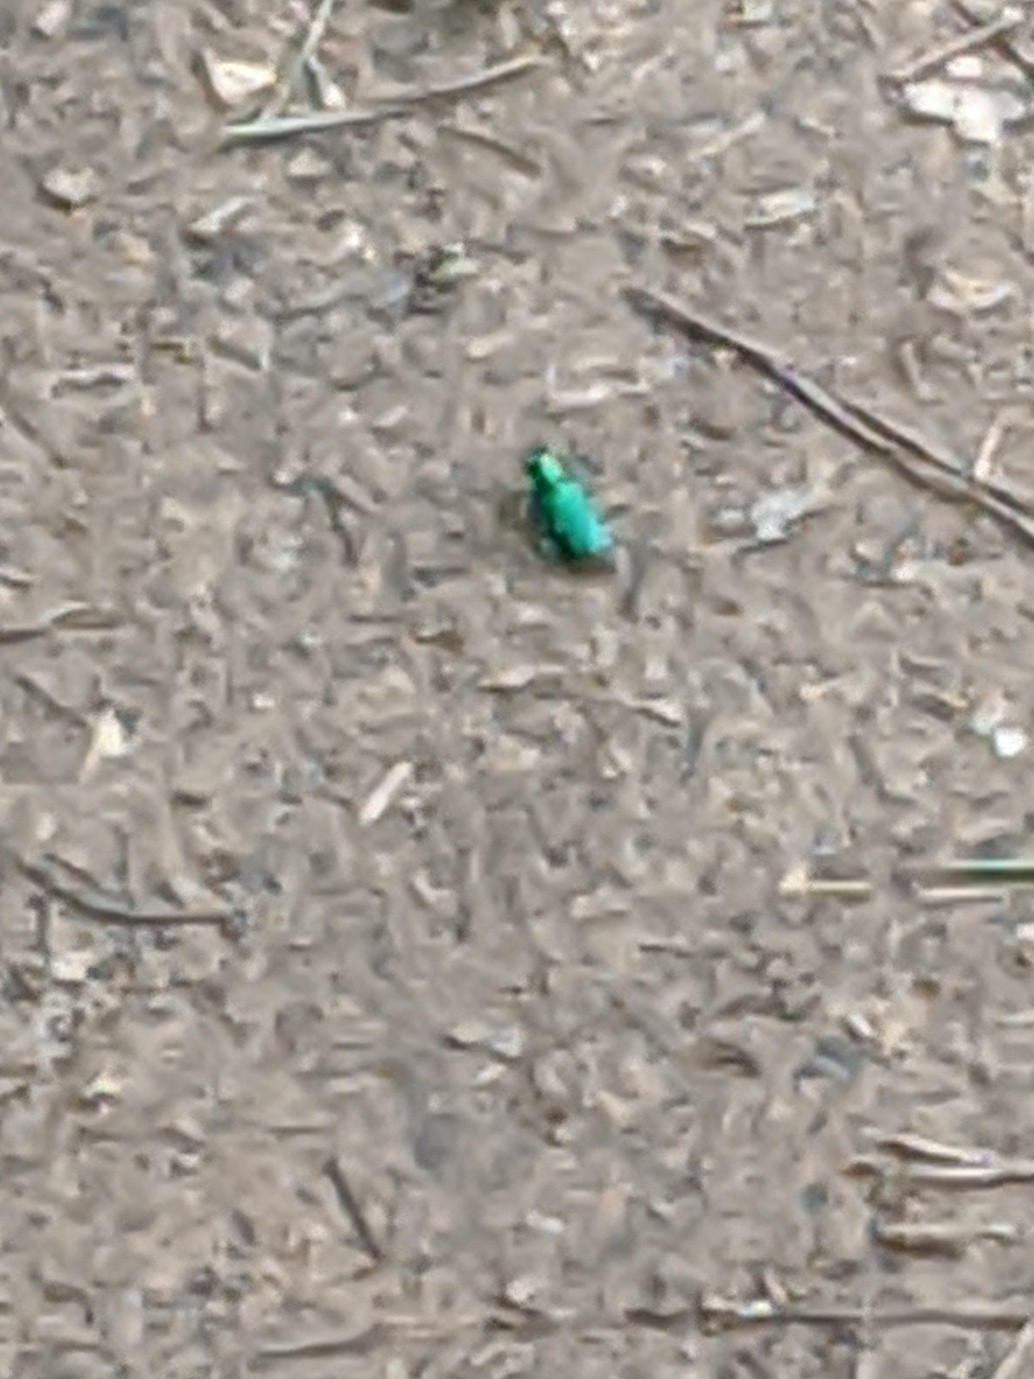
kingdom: Animalia
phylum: Arthropoda
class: Insecta
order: Coleoptera
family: Carabidae
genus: Cicindela
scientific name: Cicindela sexguttata
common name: Six-spotted tiger beetle
